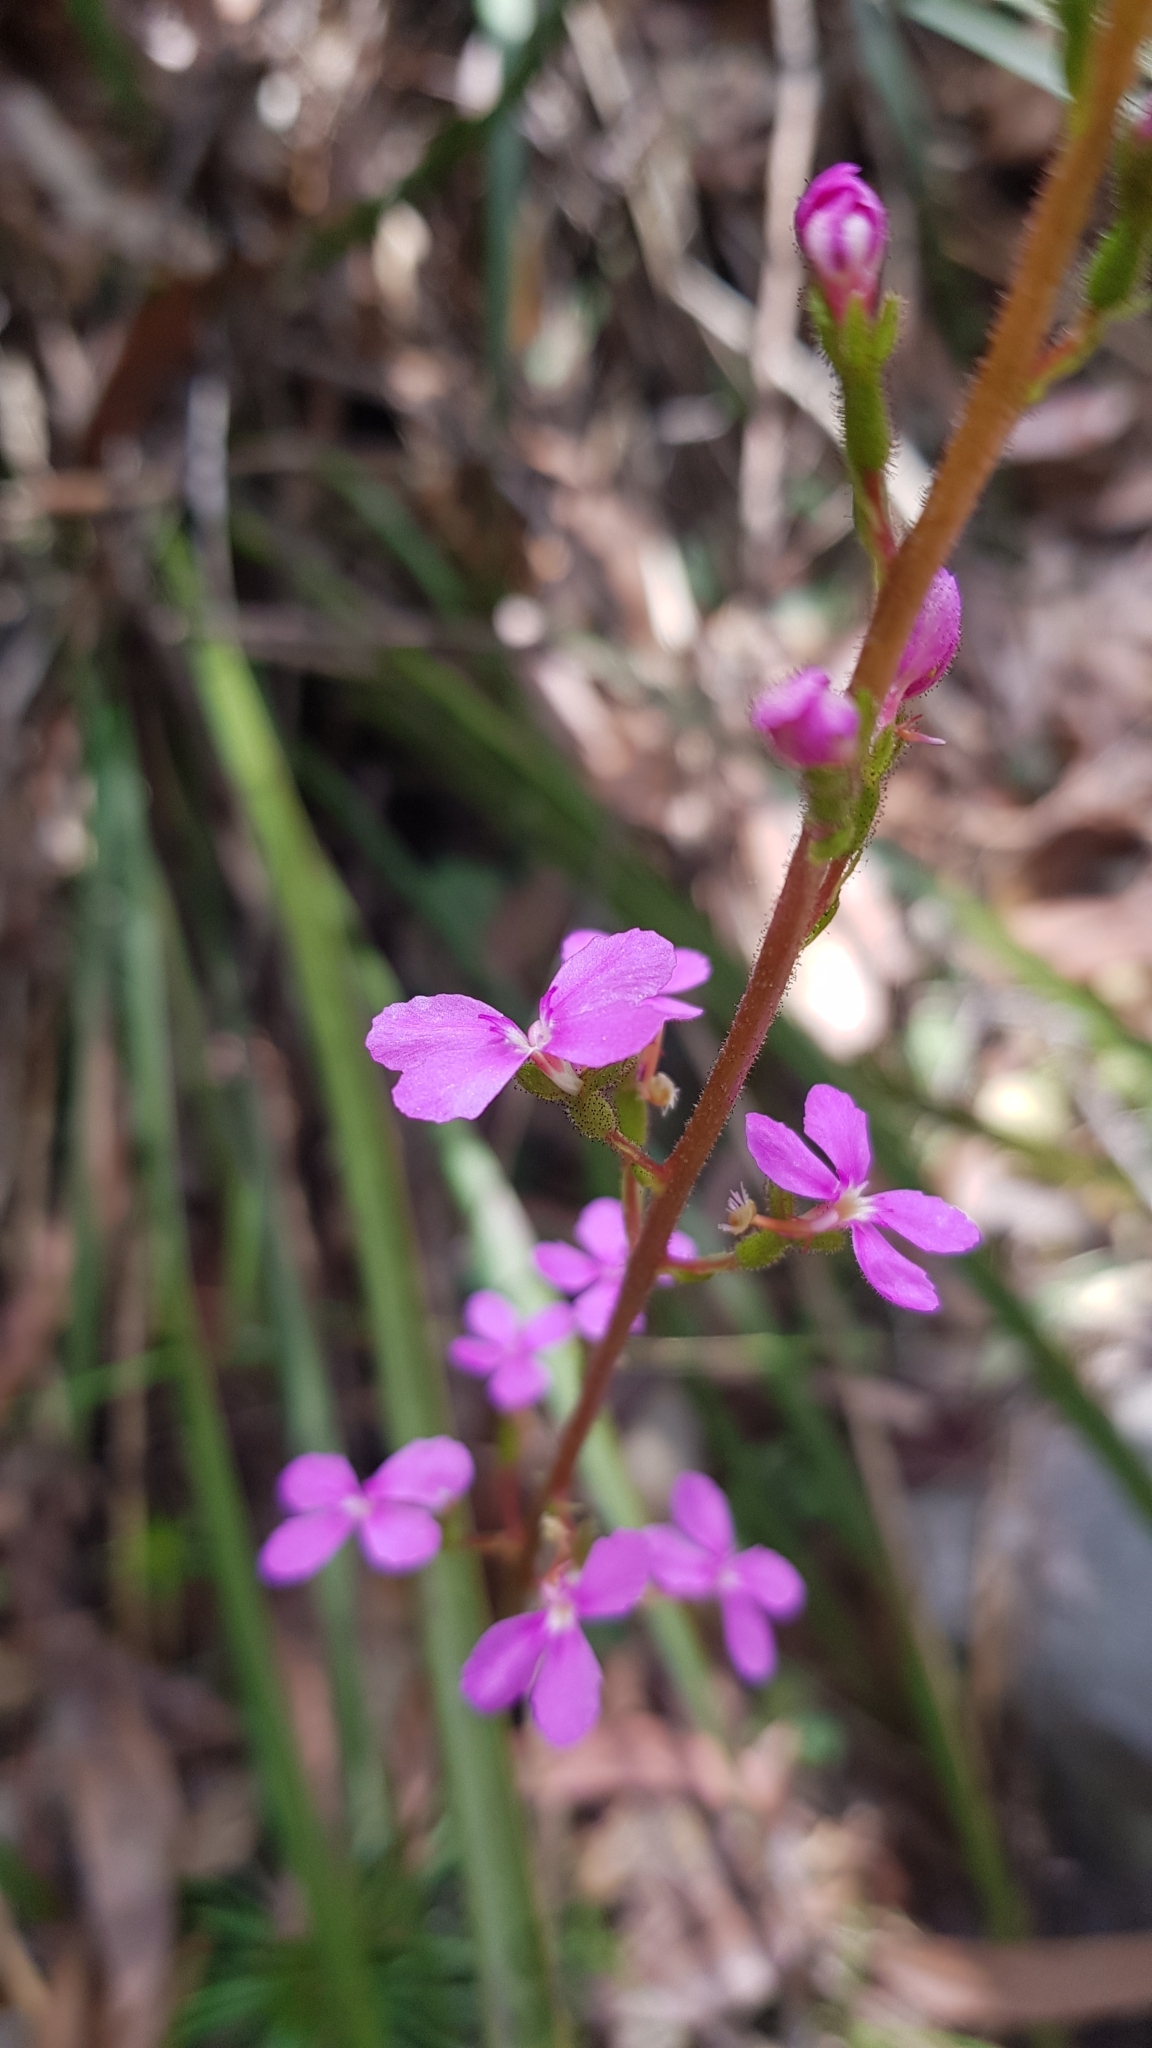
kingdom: Plantae
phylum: Tracheophyta
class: Magnoliopsida
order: Asterales
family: Stylidiaceae
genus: Stylidium
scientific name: Stylidium graminifolium
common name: Grass triggerplant
